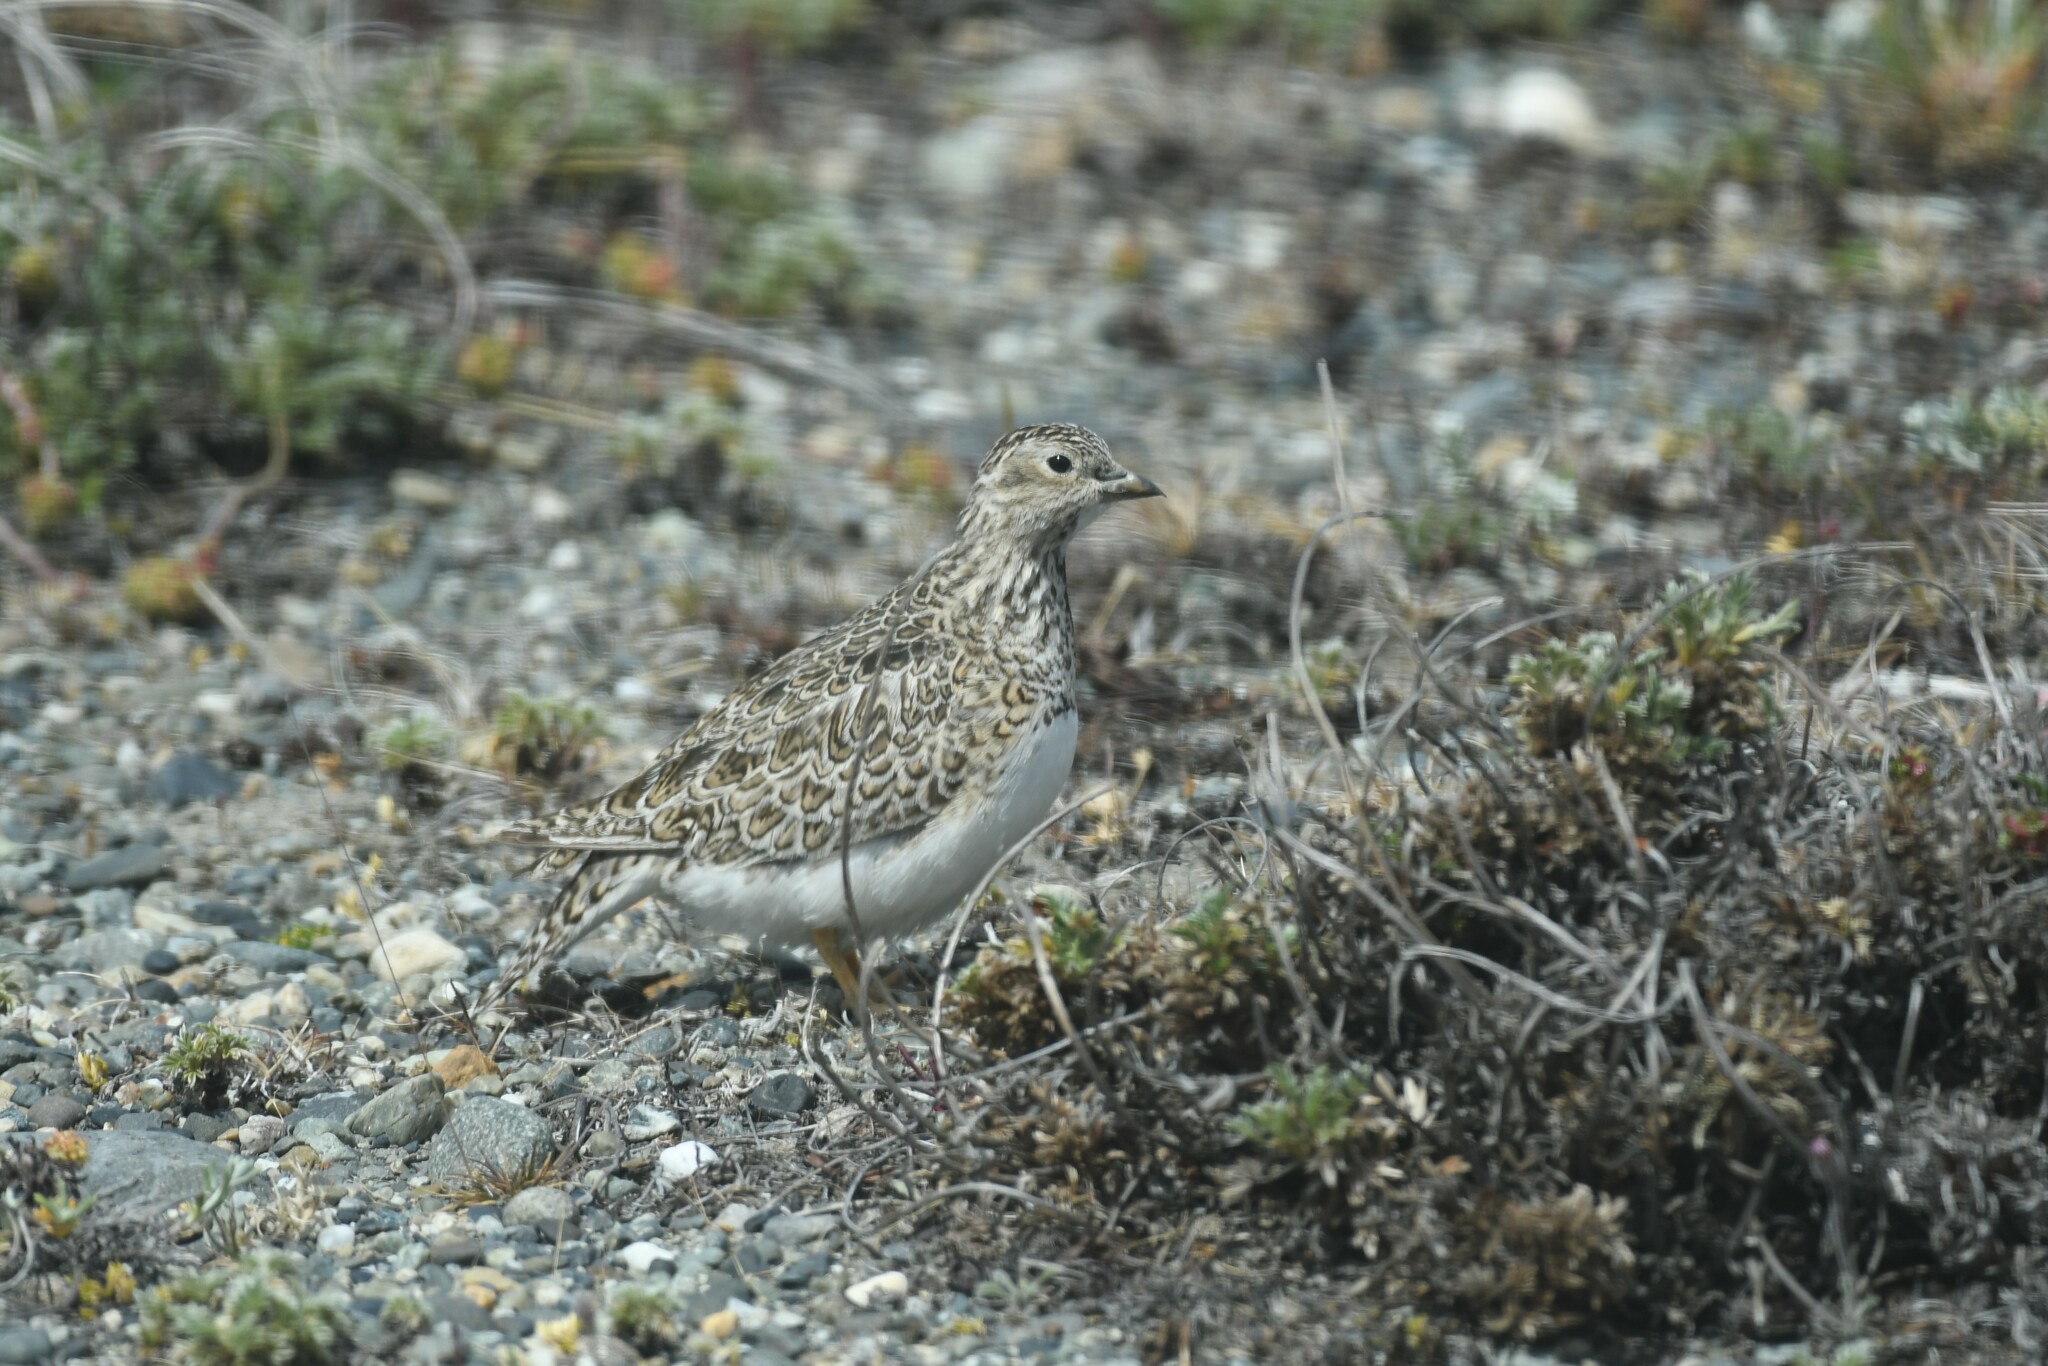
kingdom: Animalia
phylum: Chordata
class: Aves
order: Charadriiformes
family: Thinocoridae
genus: Thinocorus
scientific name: Thinocorus rumicivorus
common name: Least seedsnipe
